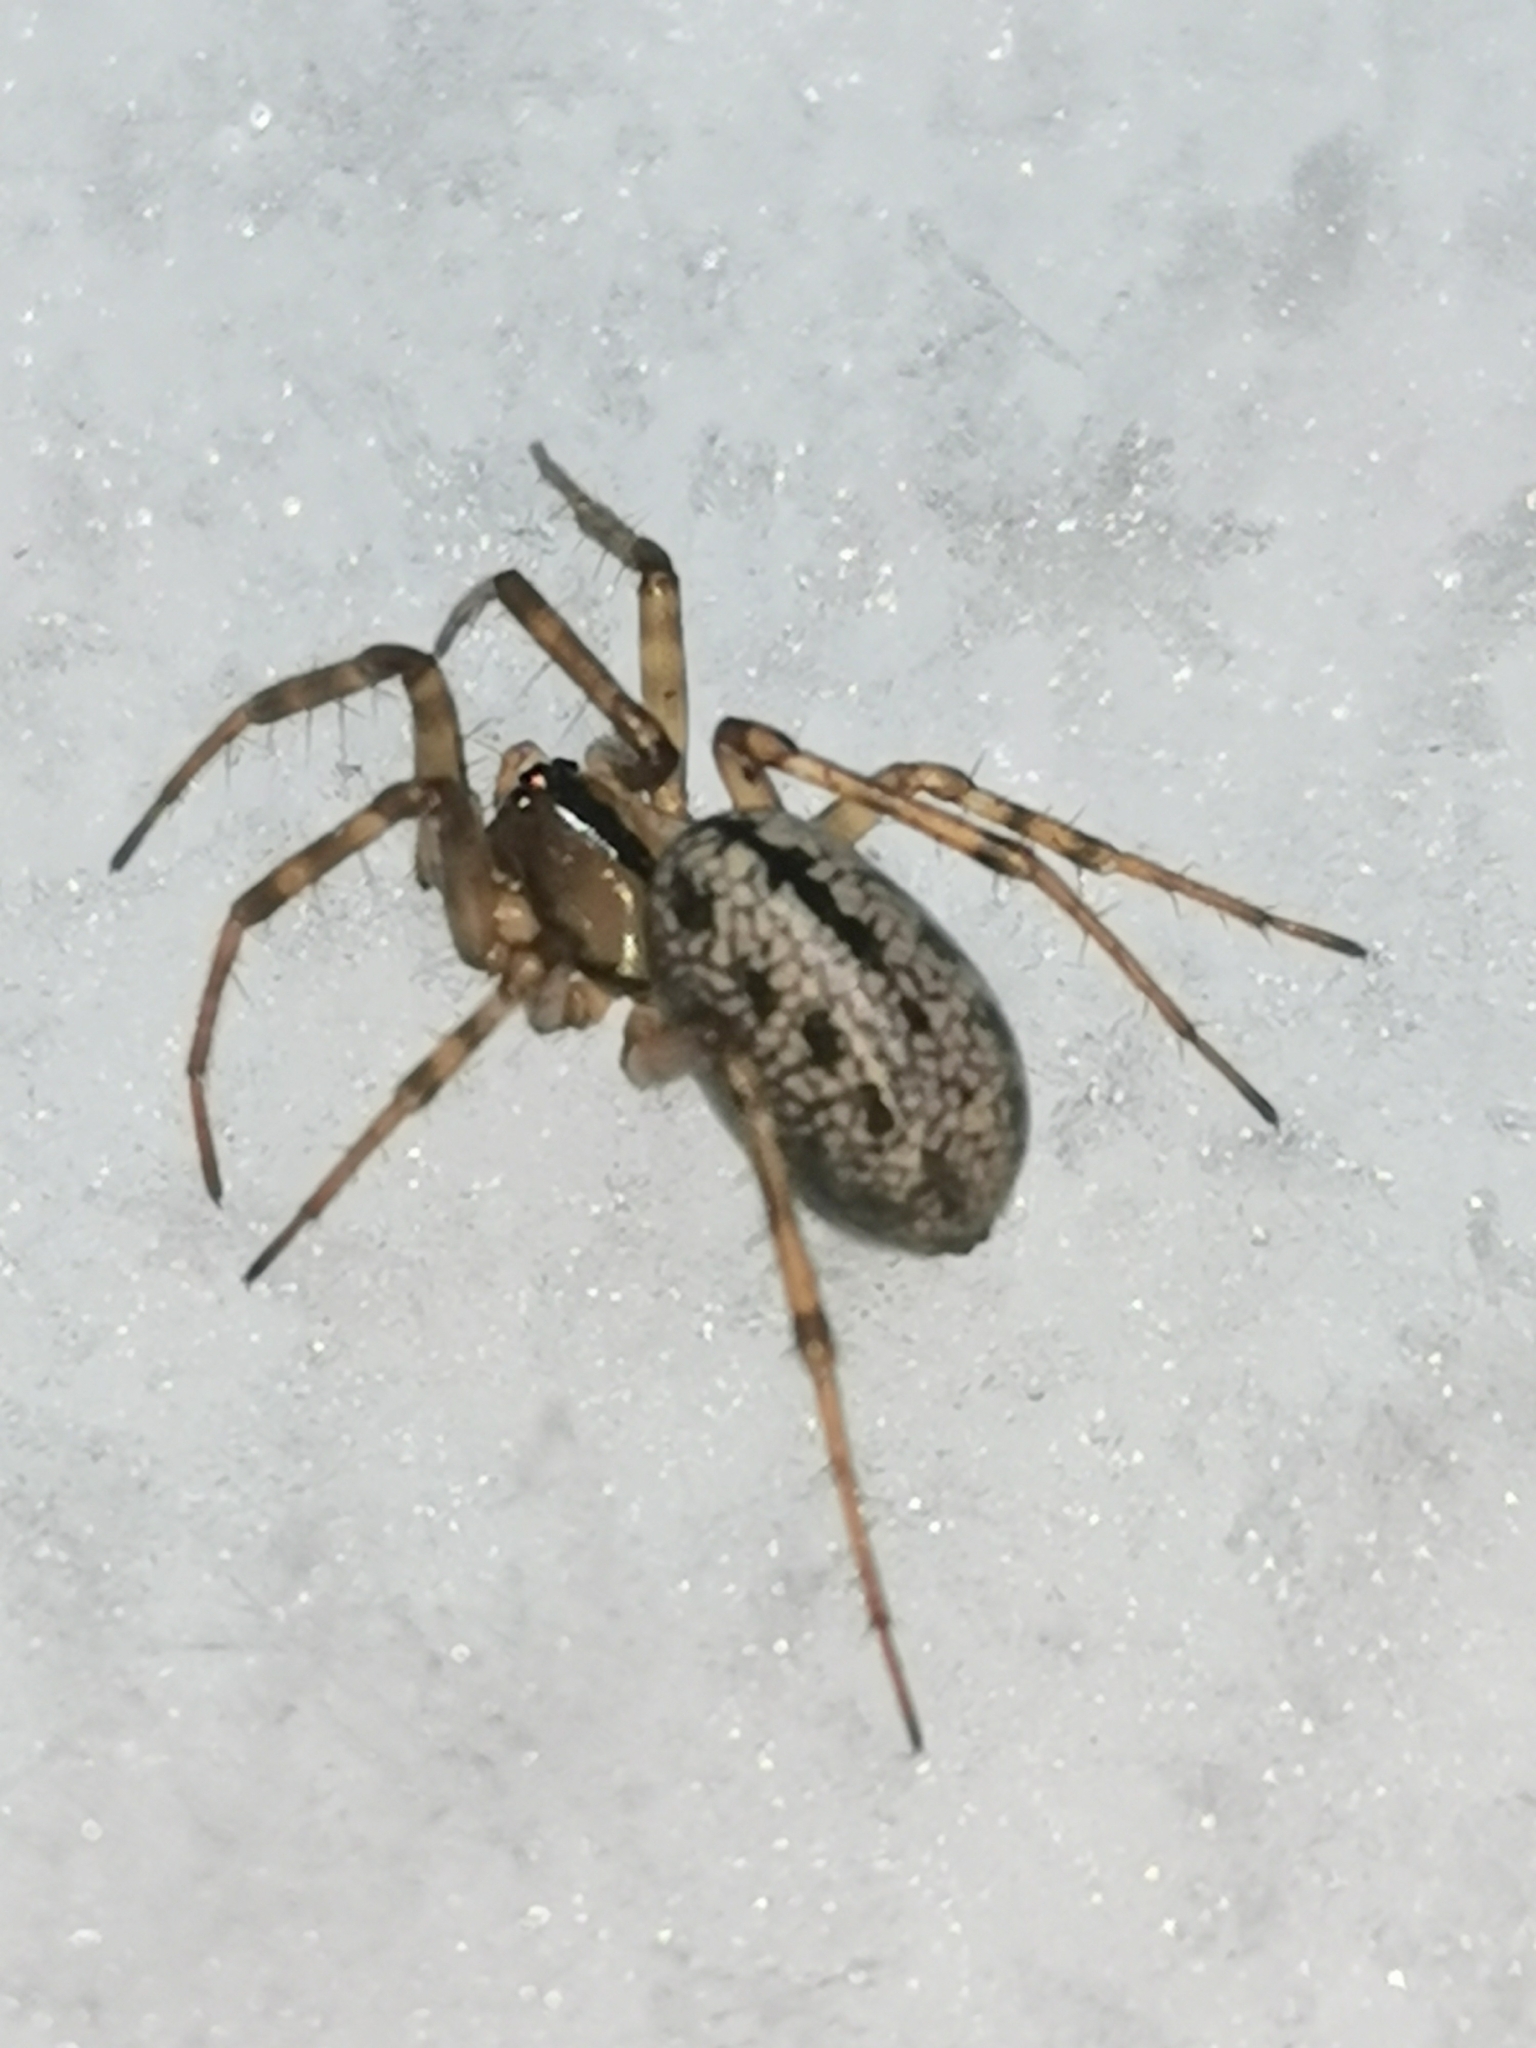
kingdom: Animalia
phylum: Arthropoda
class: Arachnida
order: Araneae
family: Linyphiidae
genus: Stemonyphantes
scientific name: Stemonyphantes lineatus
